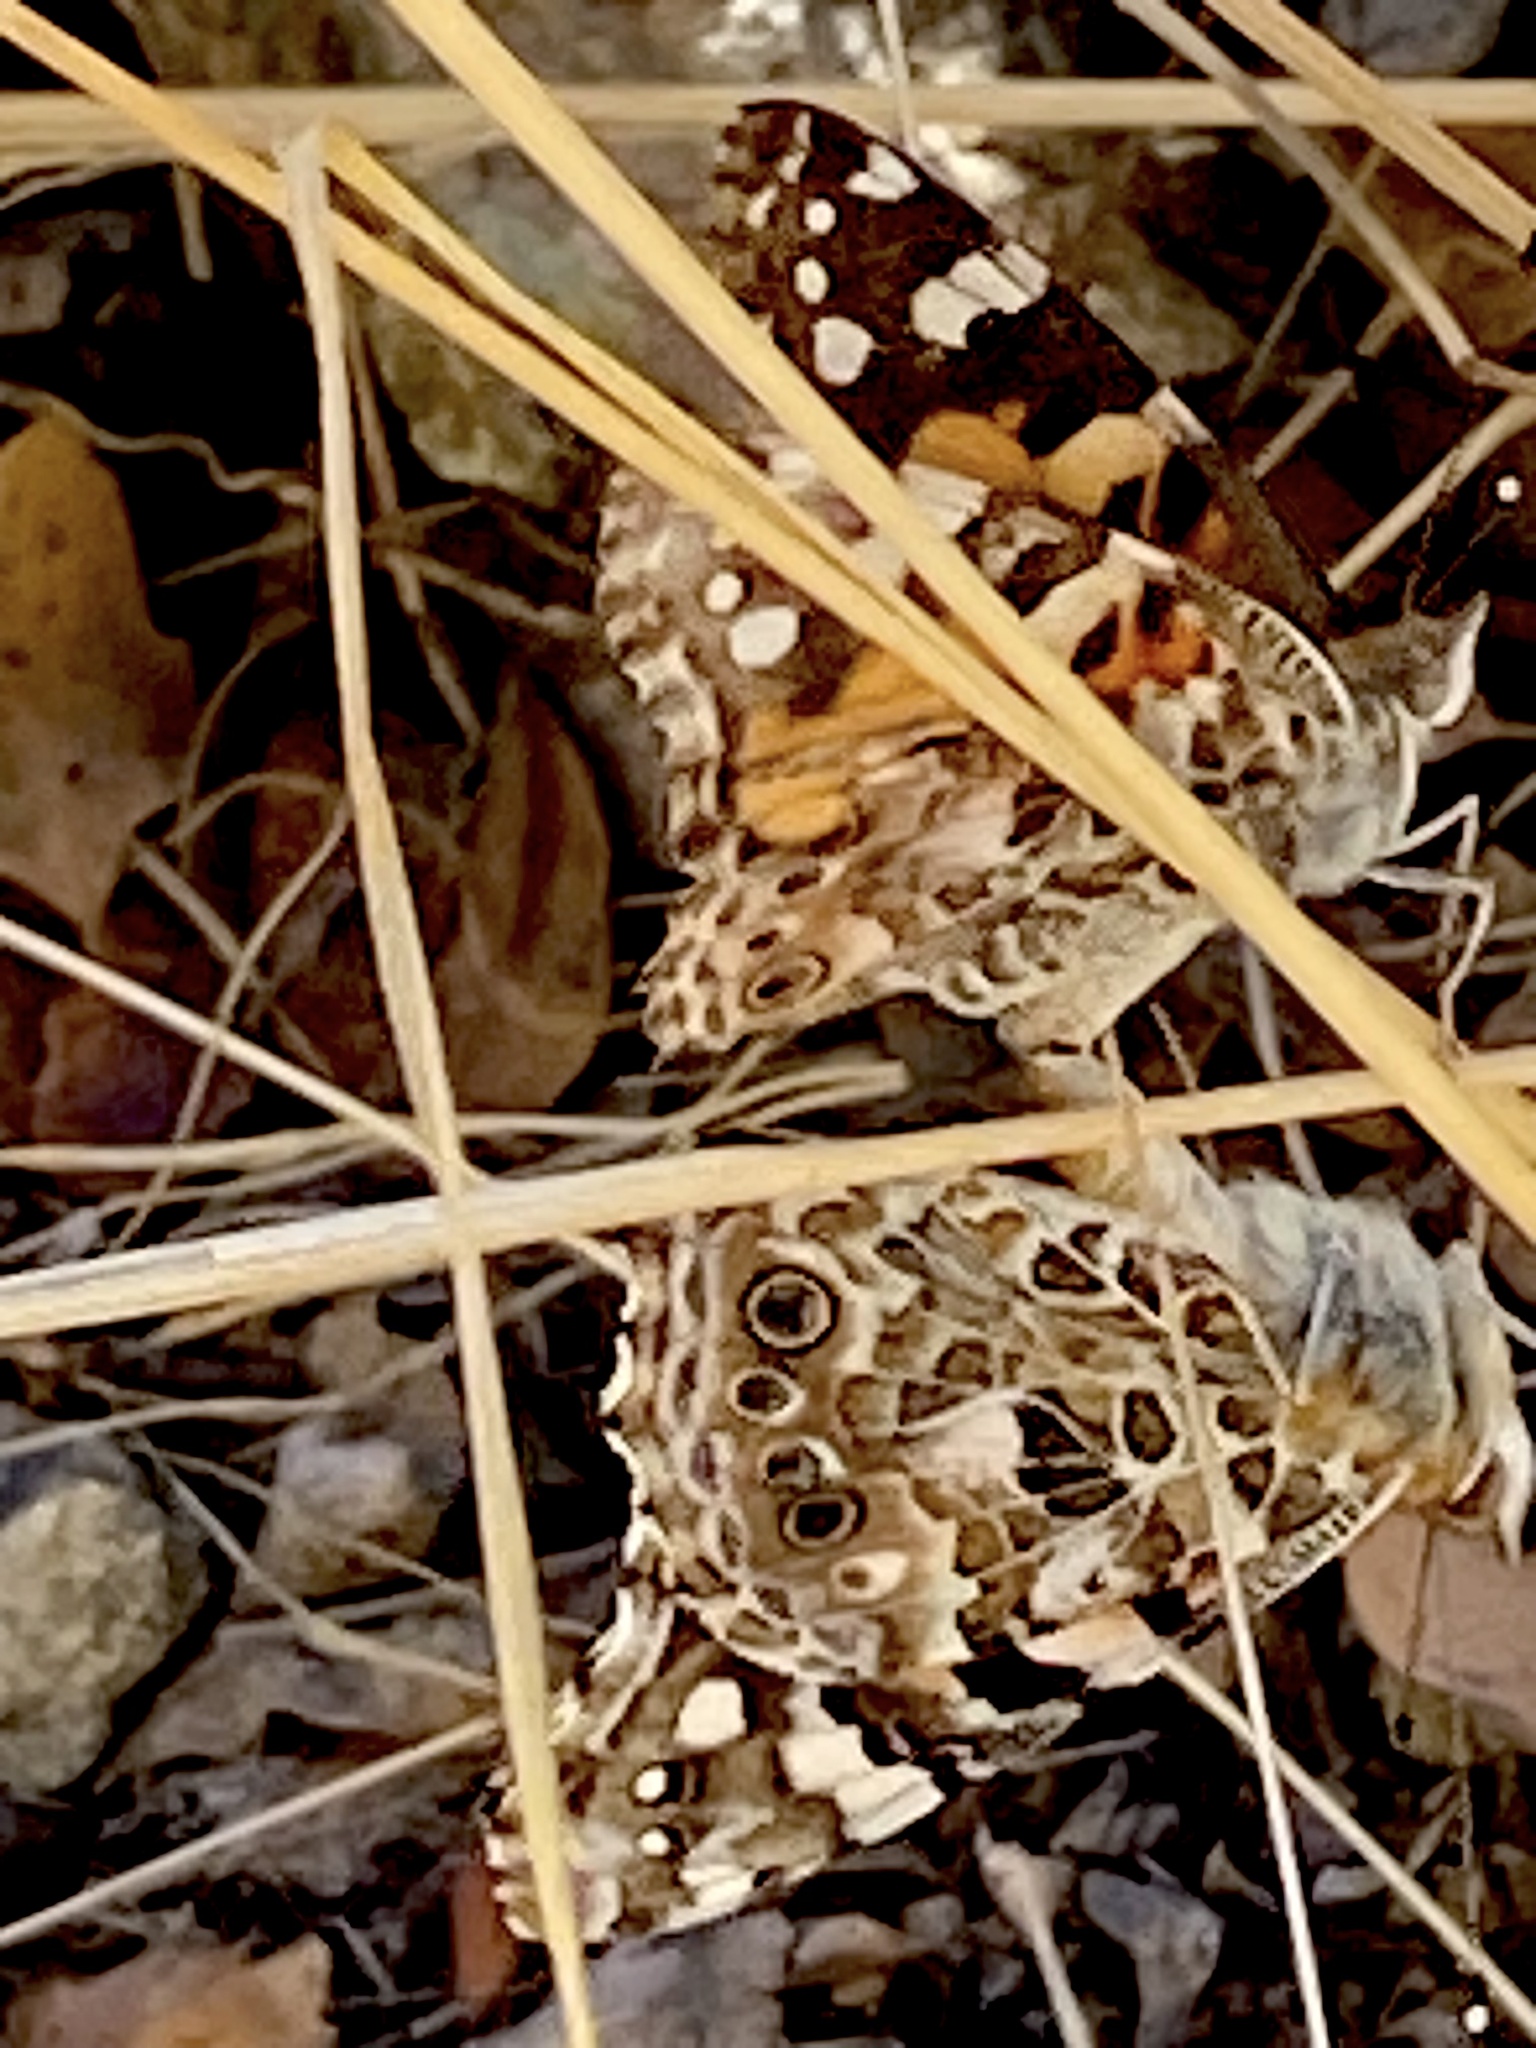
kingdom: Animalia
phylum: Arthropoda
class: Insecta
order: Lepidoptera
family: Nymphalidae
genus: Vanessa
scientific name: Vanessa cardui
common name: Painted lady
